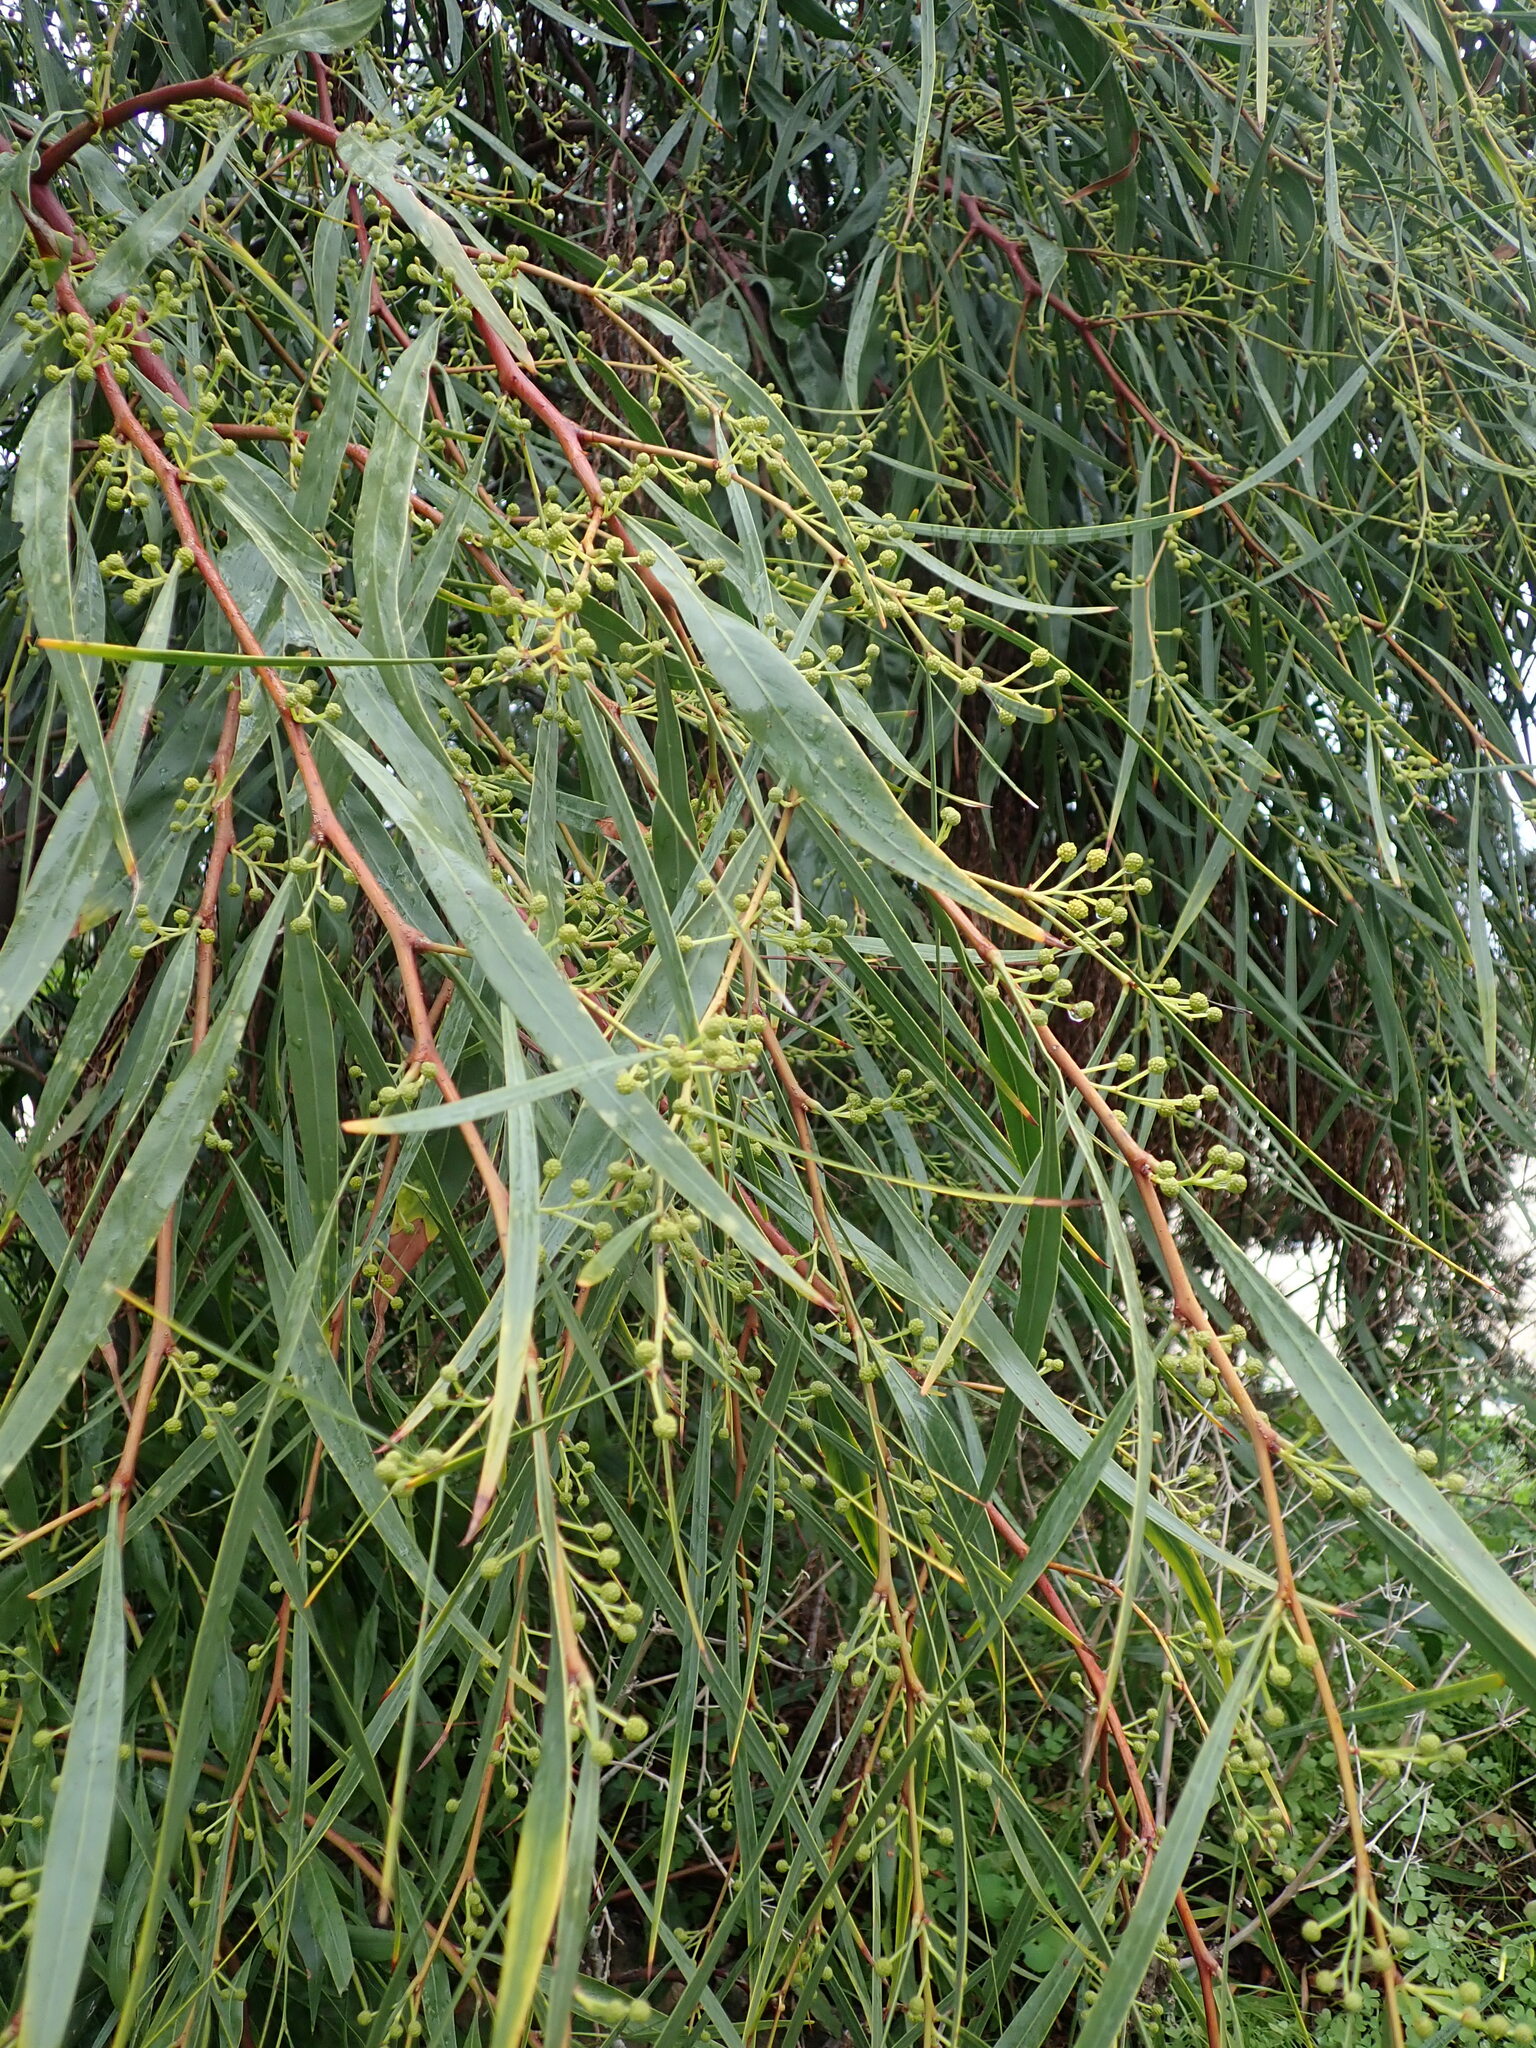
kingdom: Plantae
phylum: Tracheophyta
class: Magnoliopsida
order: Fabales
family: Fabaceae
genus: Acacia
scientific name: Acacia saligna
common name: Orange wattle
